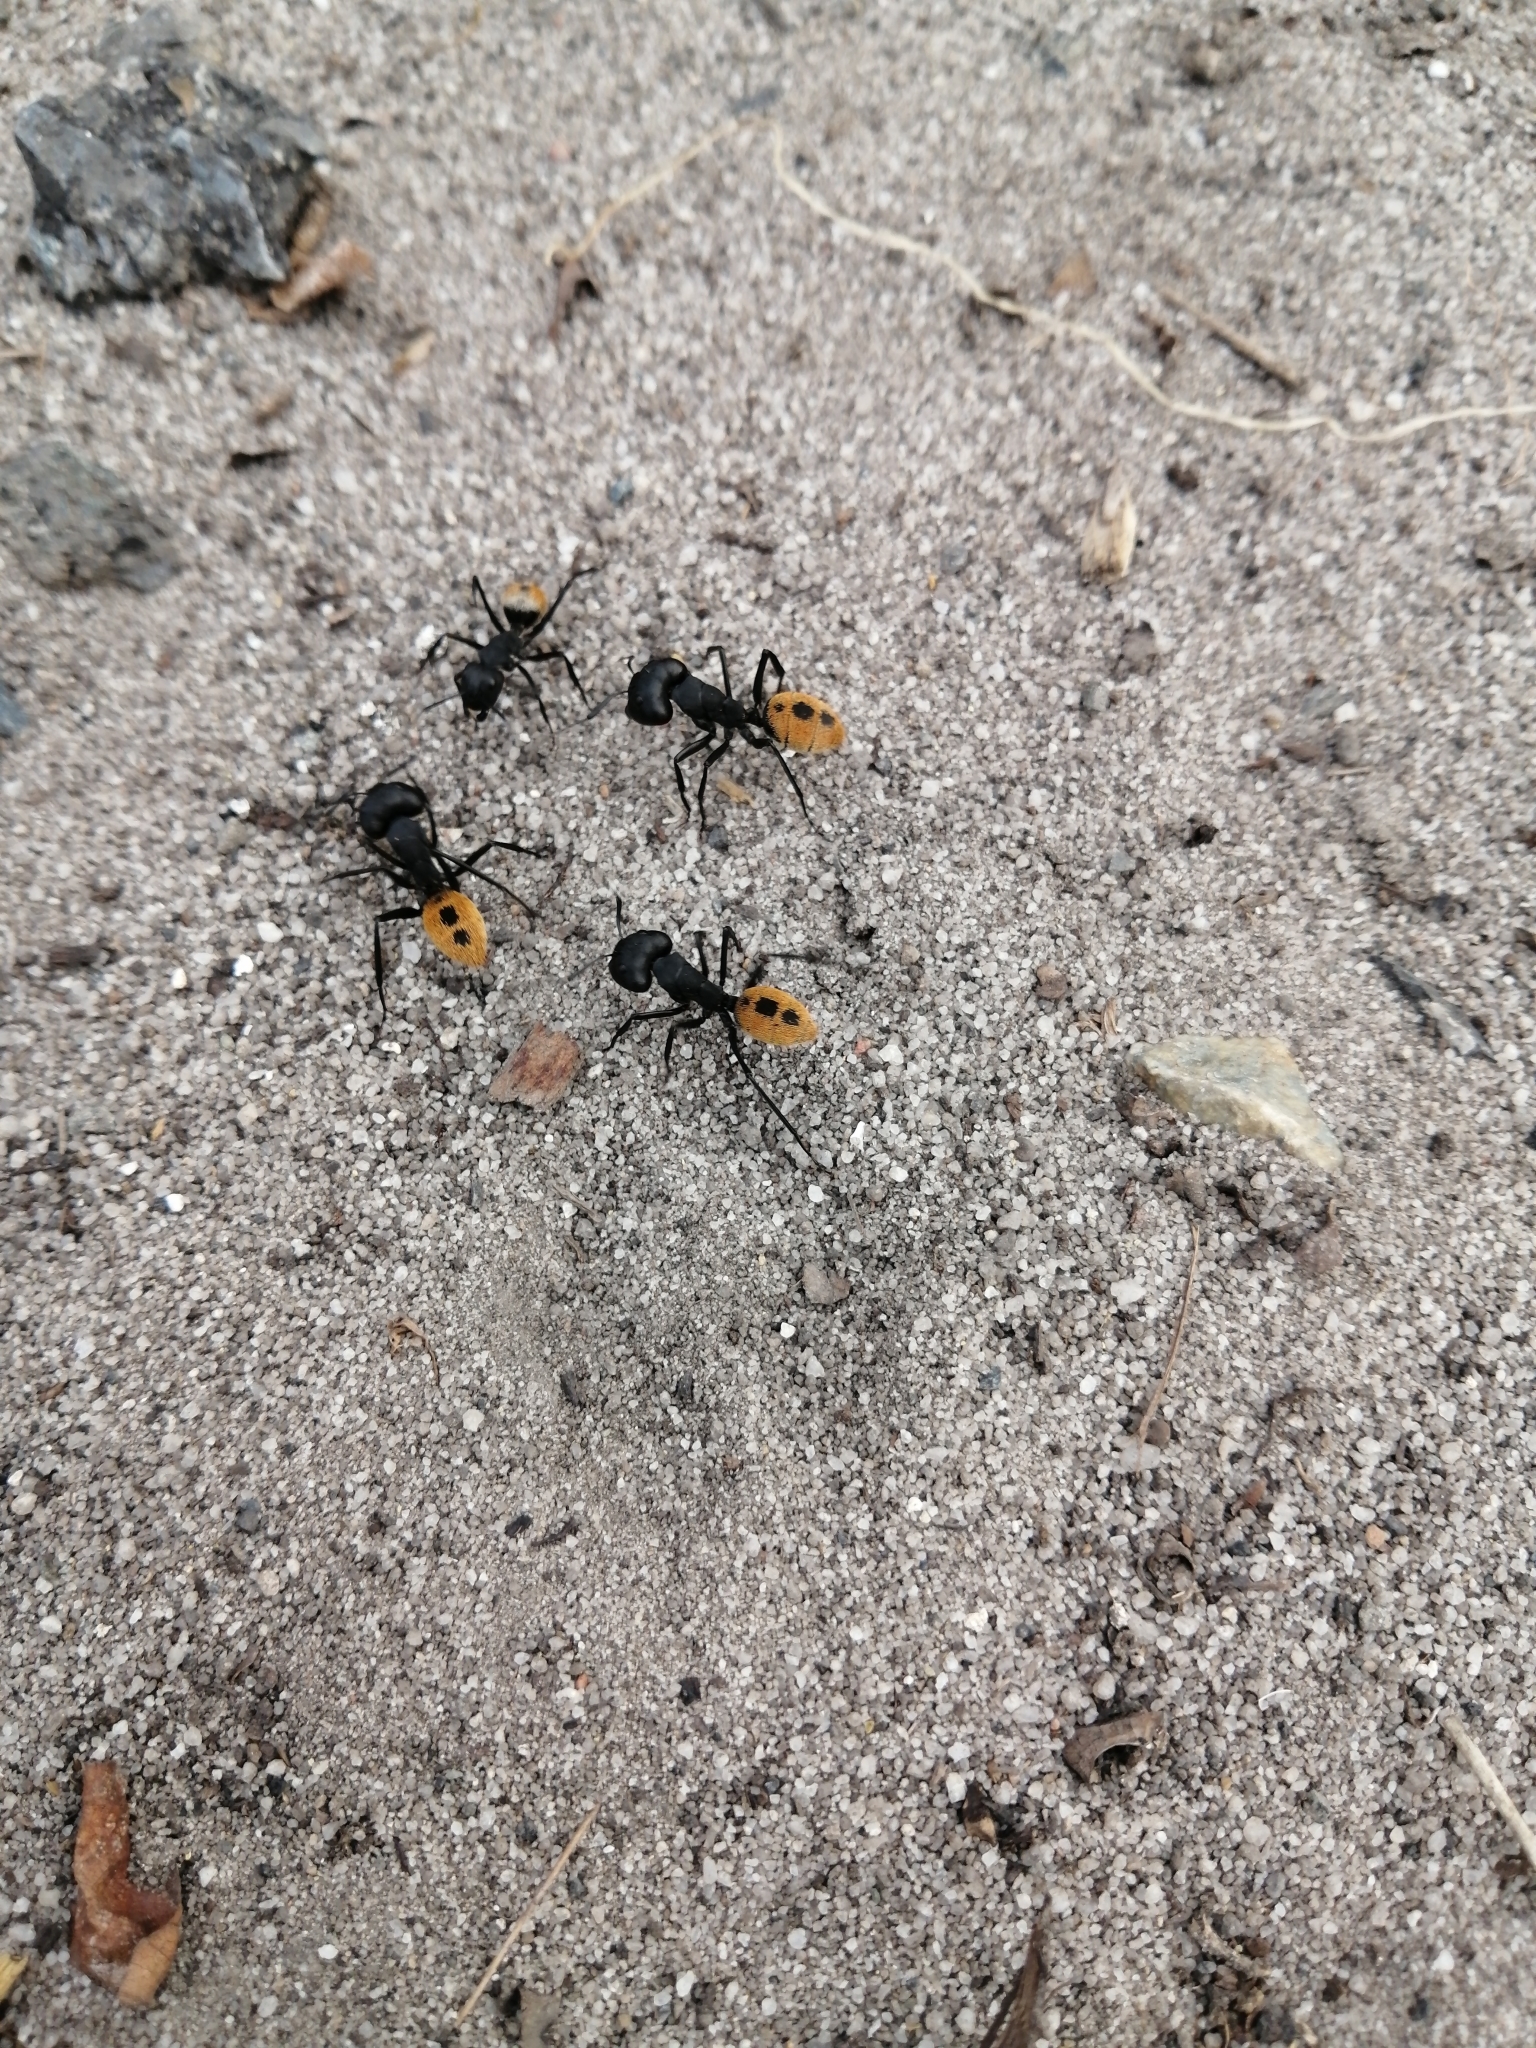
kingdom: Animalia
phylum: Arthropoda
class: Insecta
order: Hymenoptera
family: Formicidae
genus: Camponotus
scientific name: Camponotus fulvopilosus
